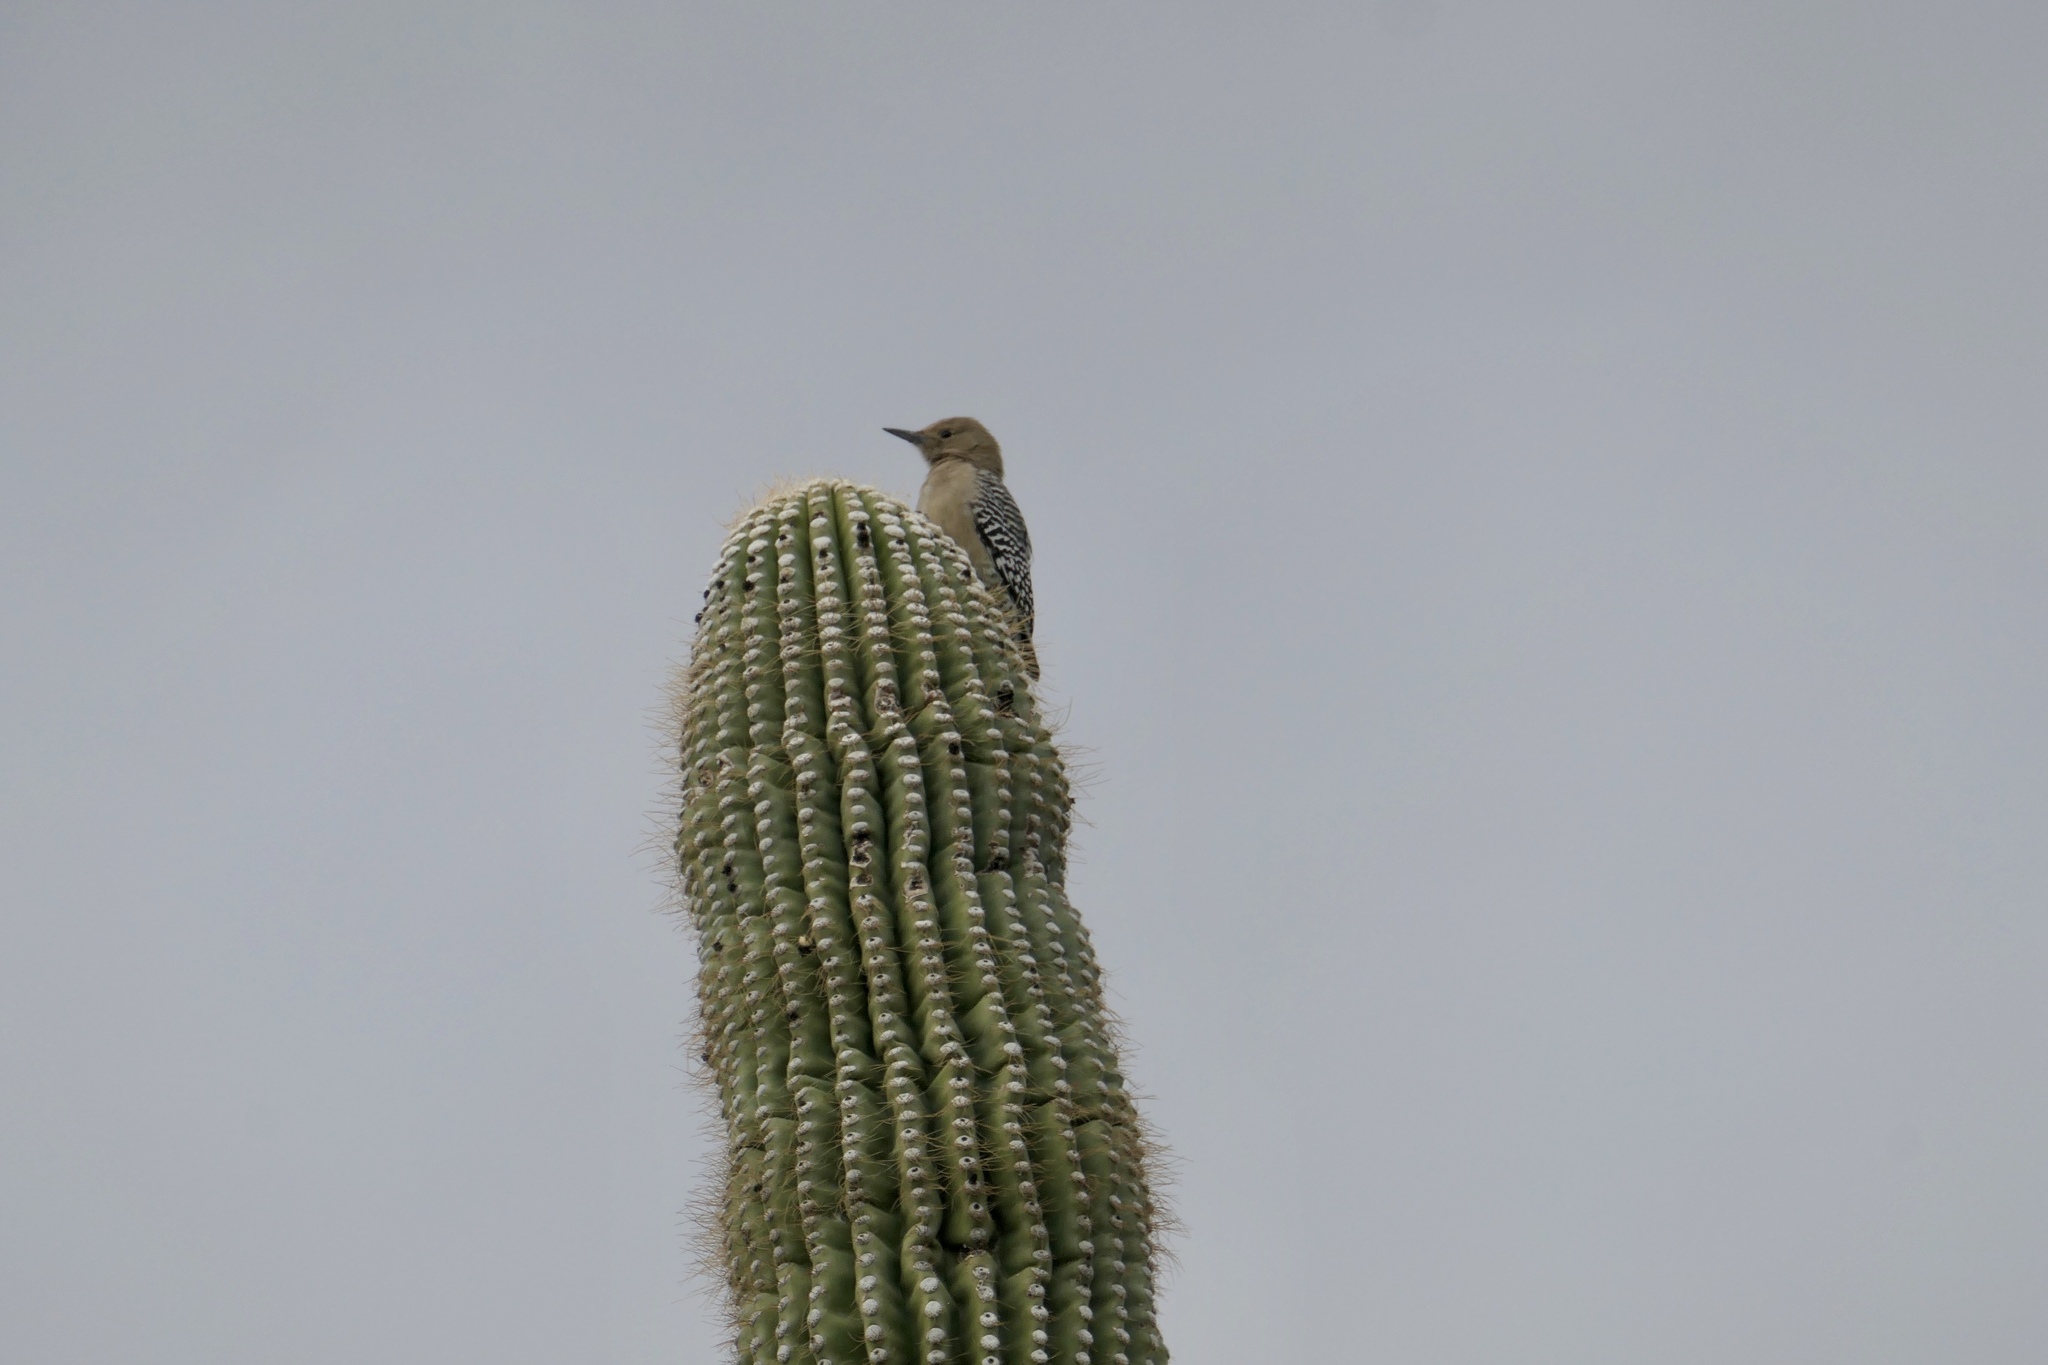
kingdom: Animalia
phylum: Chordata
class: Aves
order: Piciformes
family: Picidae
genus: Melanerpes
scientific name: Melanerpes uropygialis
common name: Gila woodpecker
